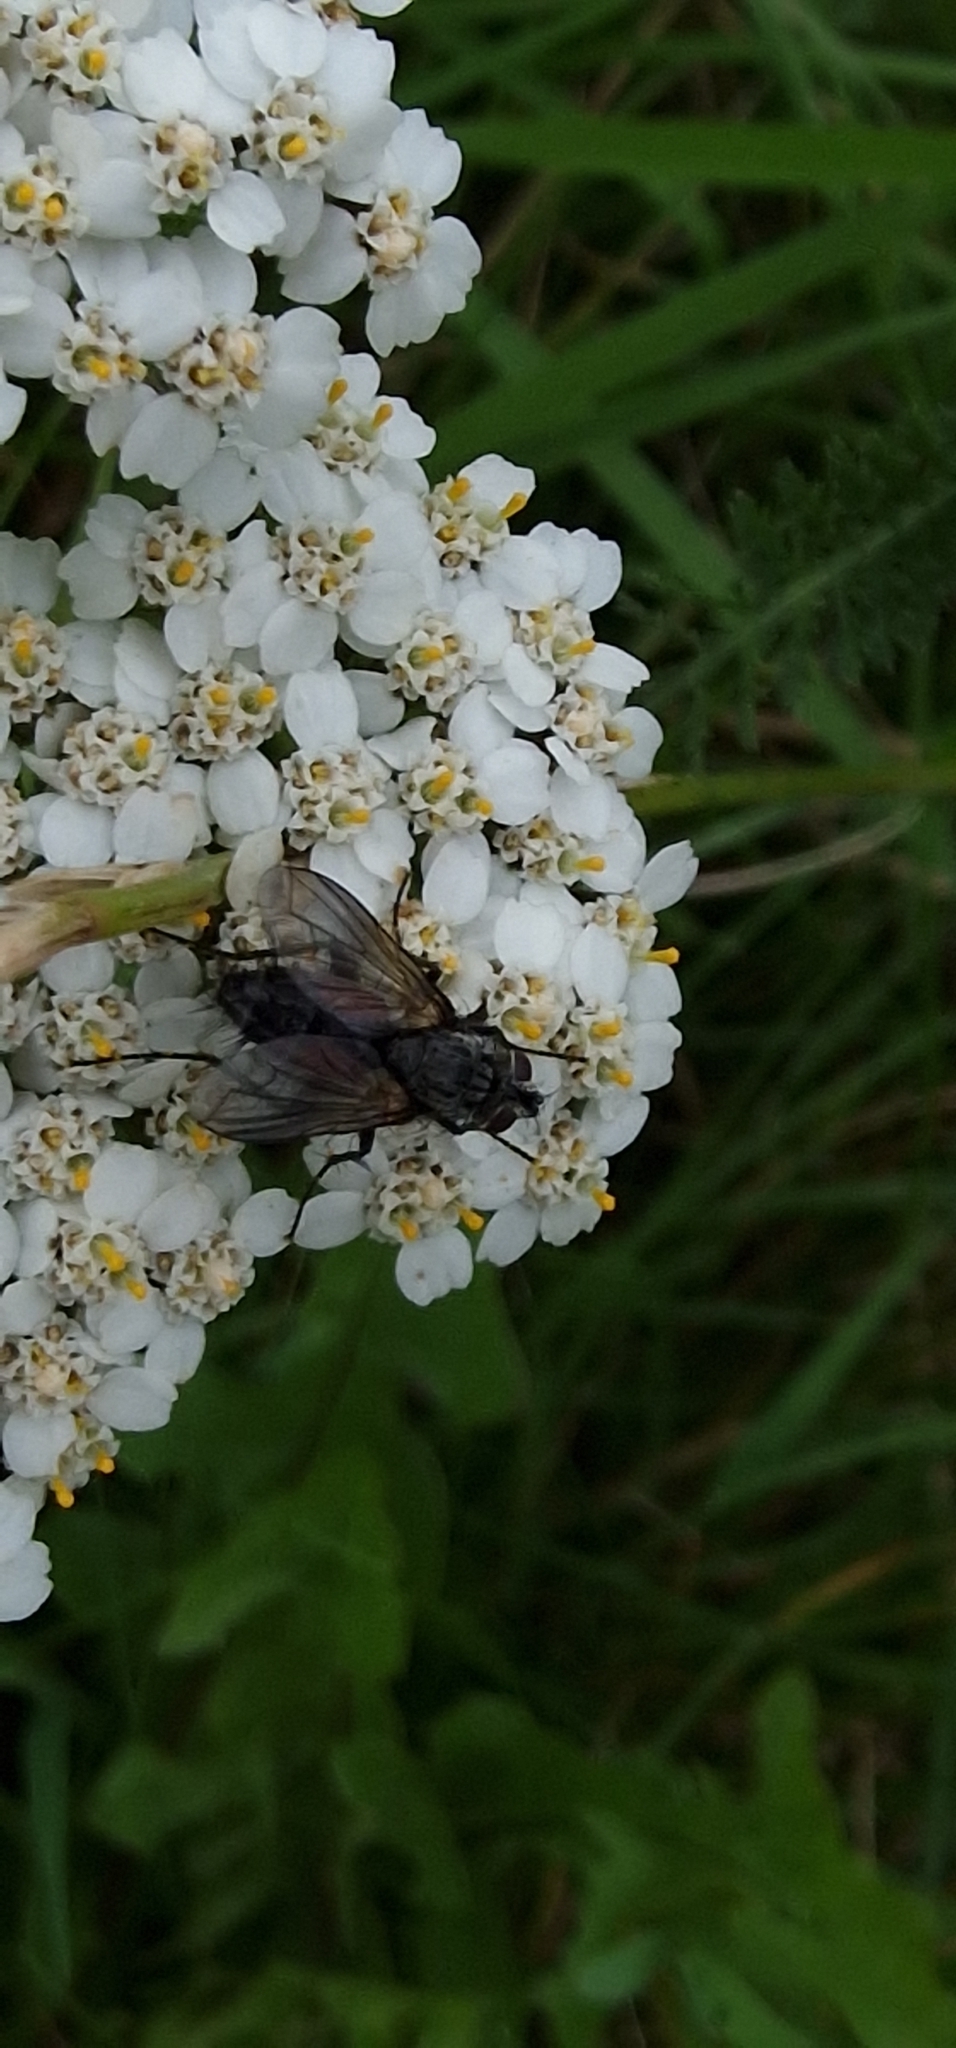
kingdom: Animalia
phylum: Arthropoda
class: Insecta
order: Diptera
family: Tachinidae
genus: Eriothrix
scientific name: Eriothrix rufomaculatus
